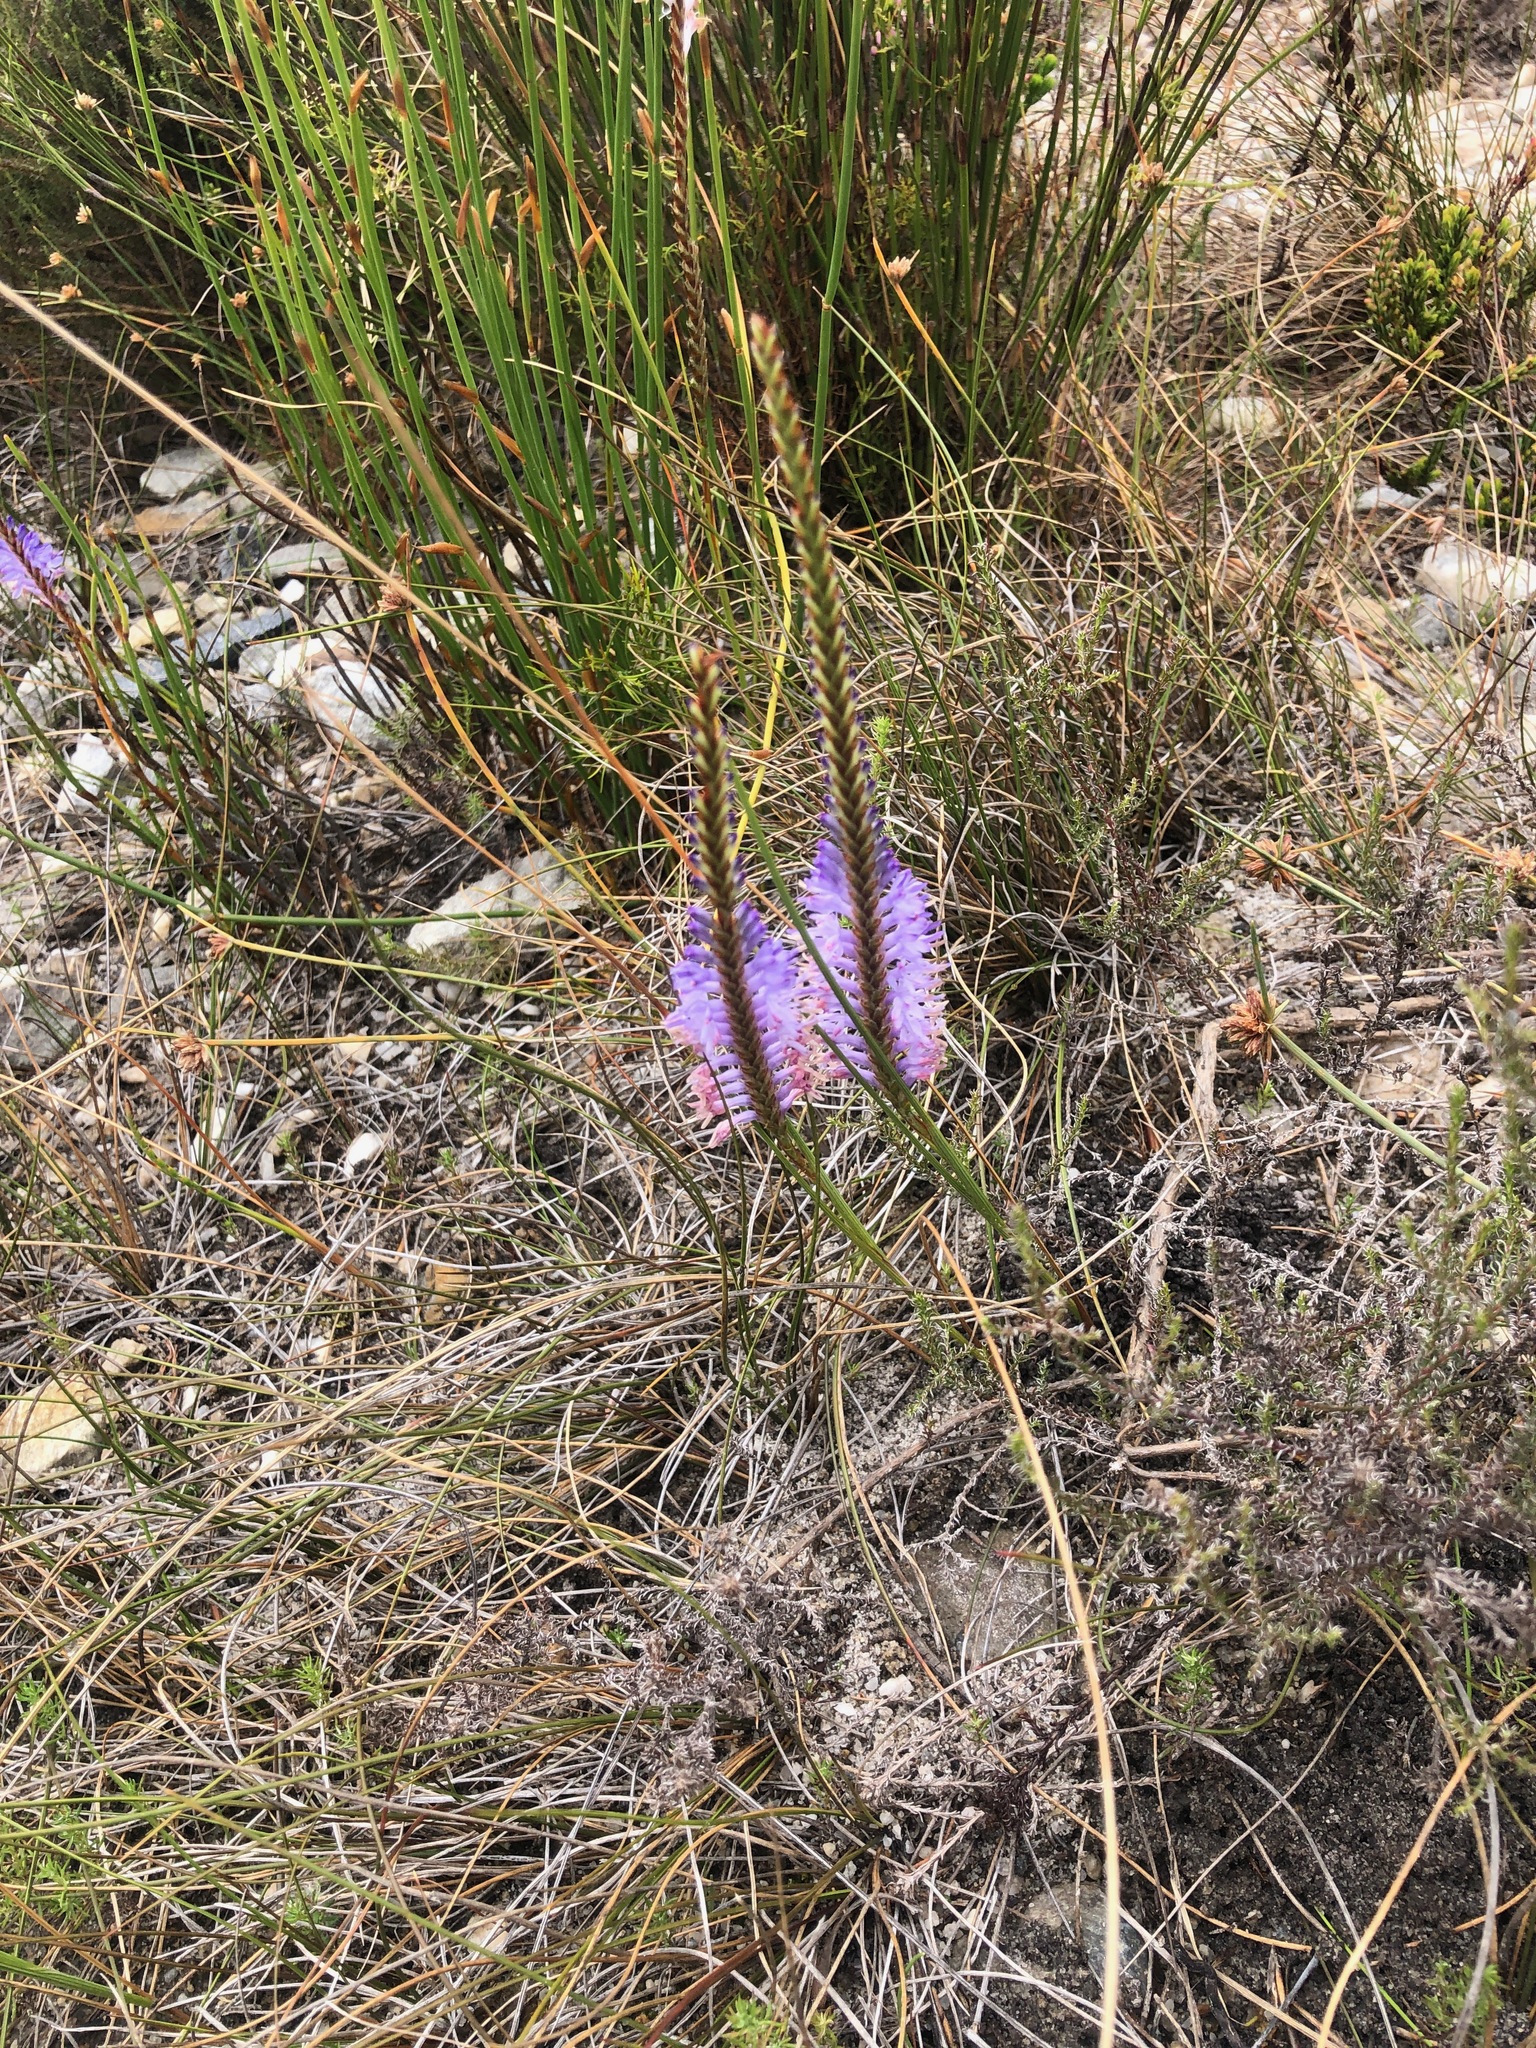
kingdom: Plantae
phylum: Tracheophyta
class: Liliopsida
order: Asparagales
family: Iridaceae
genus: Micranthus
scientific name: Micranthus plantagineus
